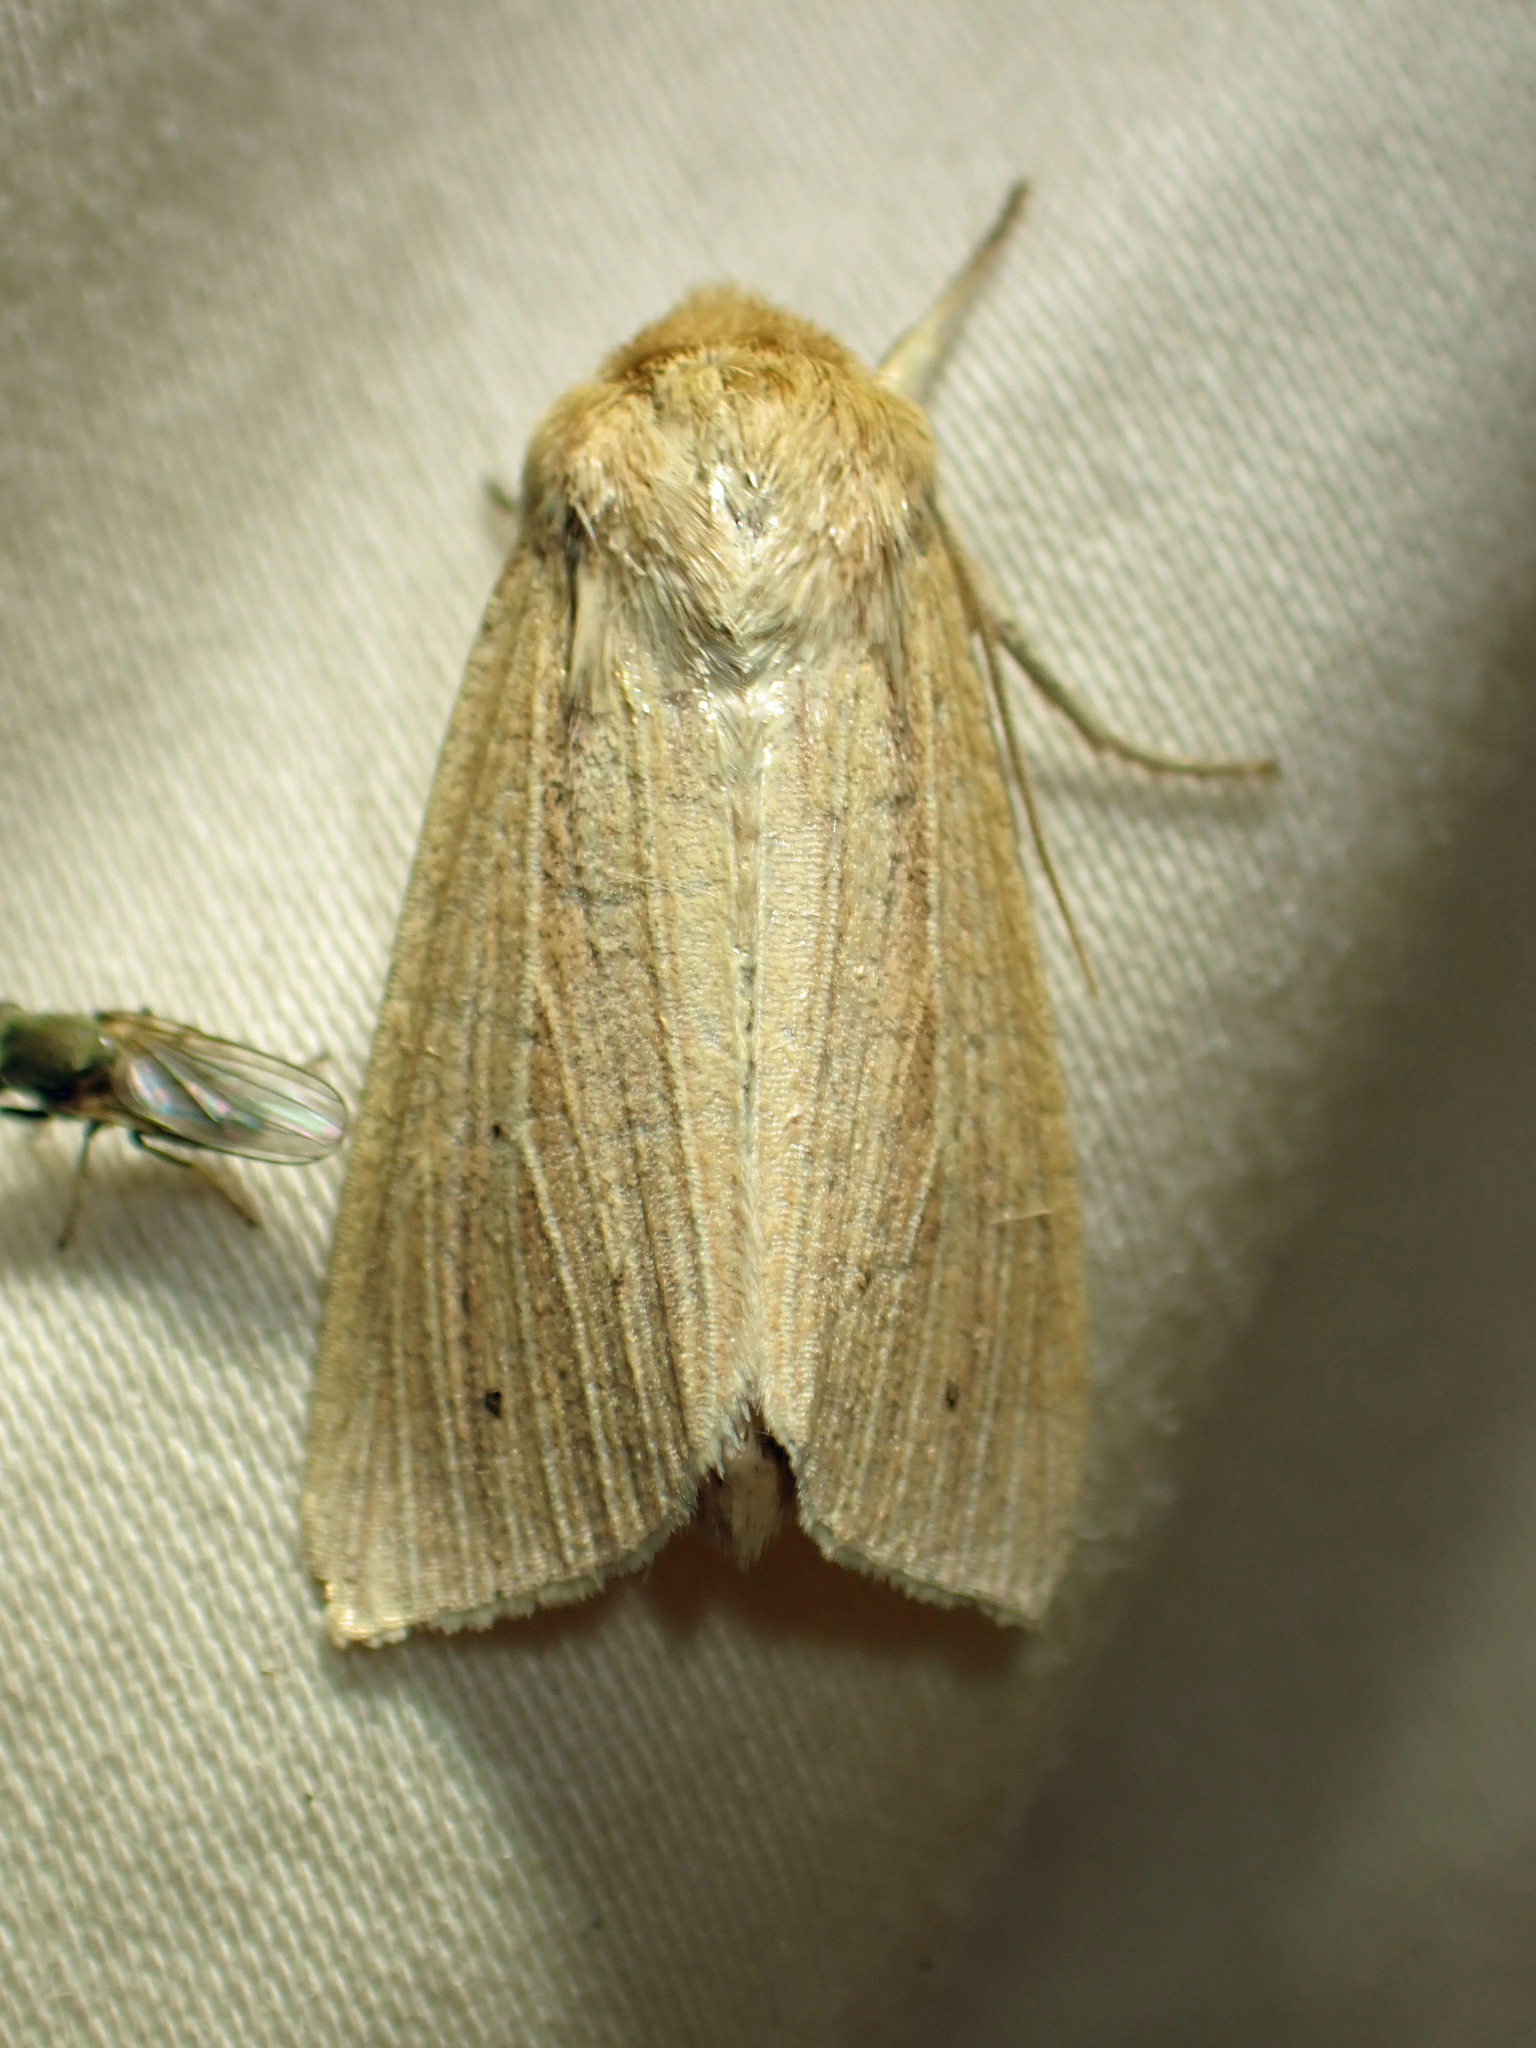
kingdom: Animalia
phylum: Arthropoda
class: Insecta
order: Lepidoptera
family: Noctuidae
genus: Mythimna
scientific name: Mythimna oxygala
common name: Lesser wainscot
